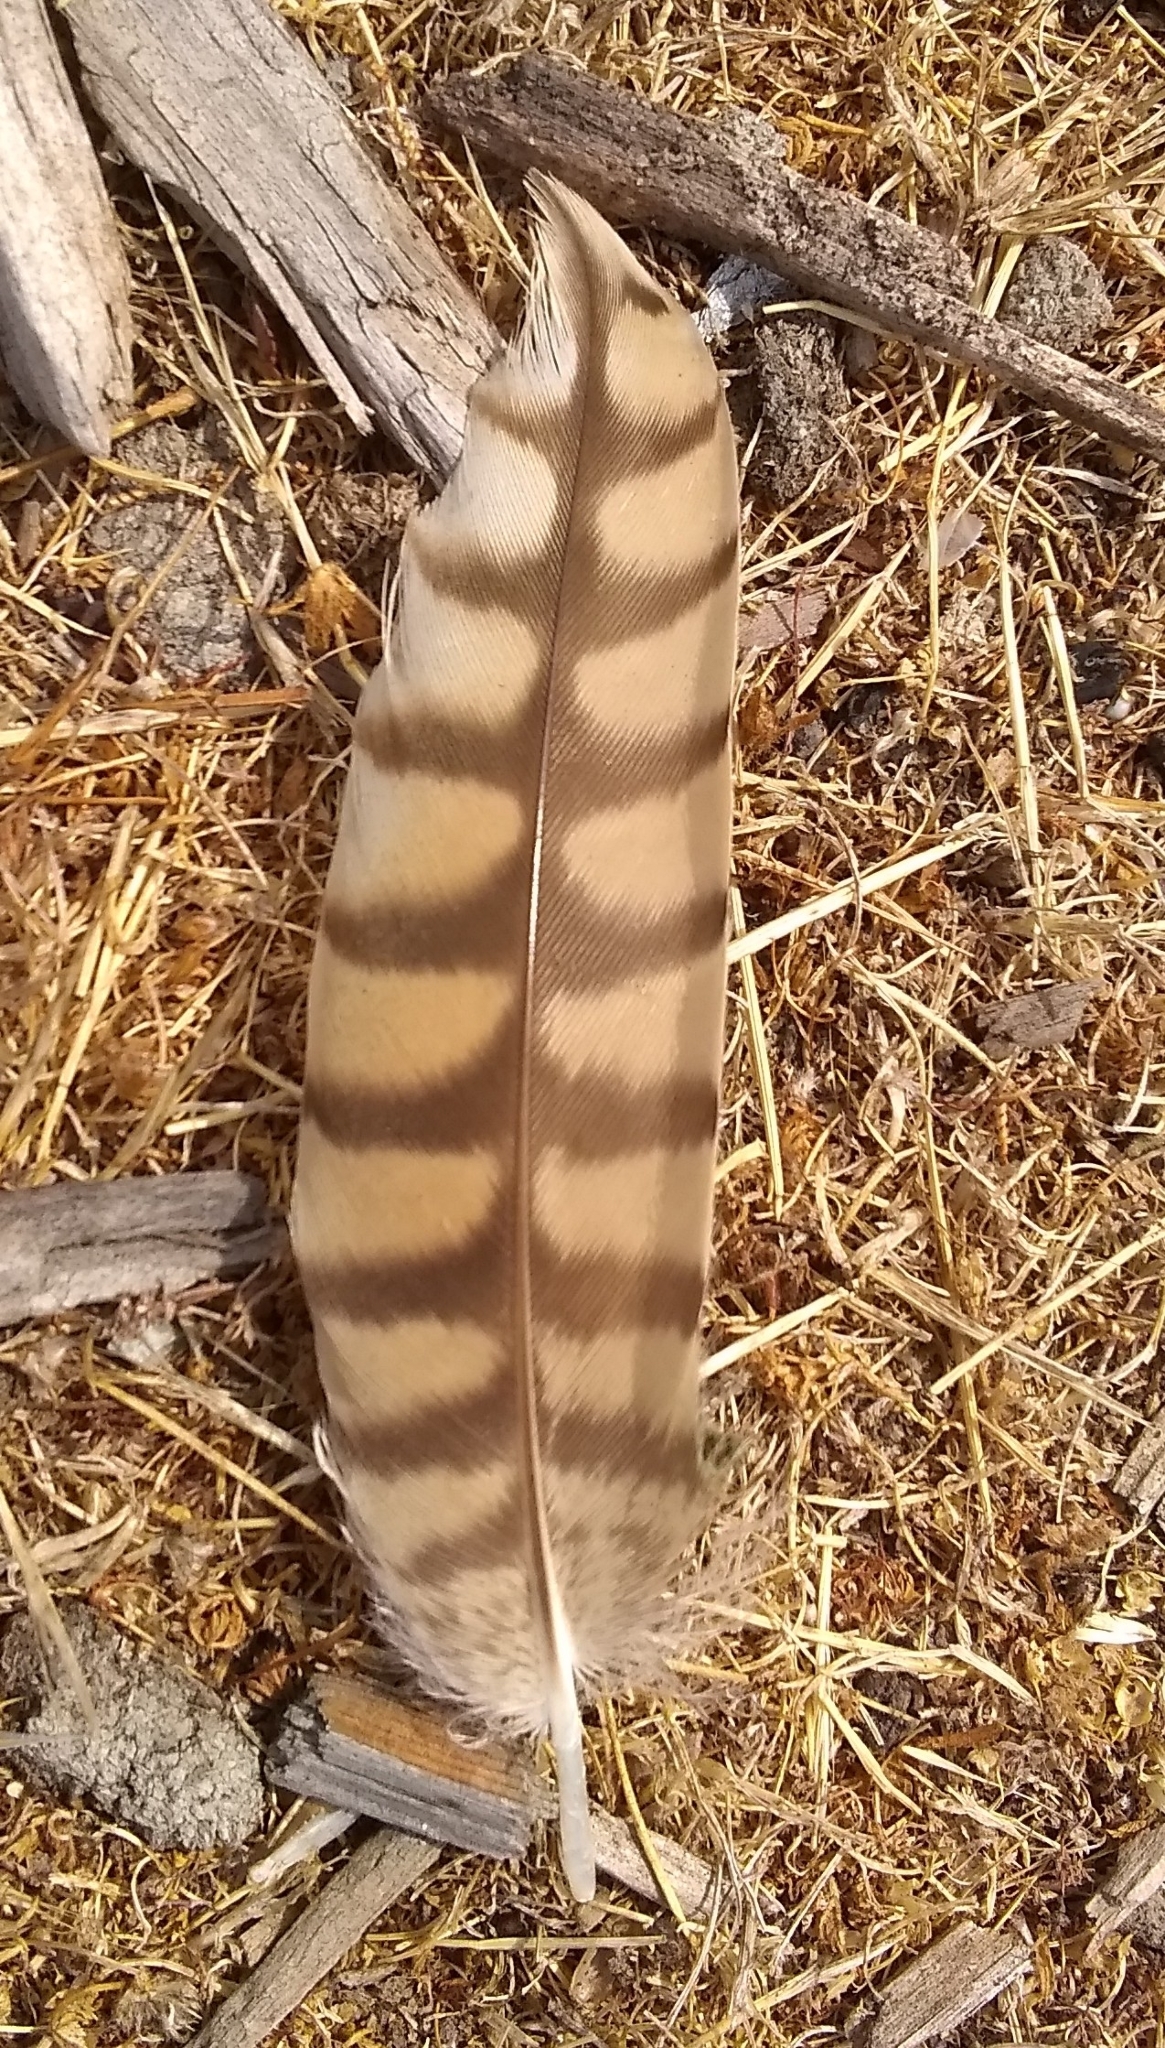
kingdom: Animalia
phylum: Chordata
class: Aves
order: Charadriiformes
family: Scolopacidae
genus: Numenius
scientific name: Numenius americanus
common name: Long-billed curlew
